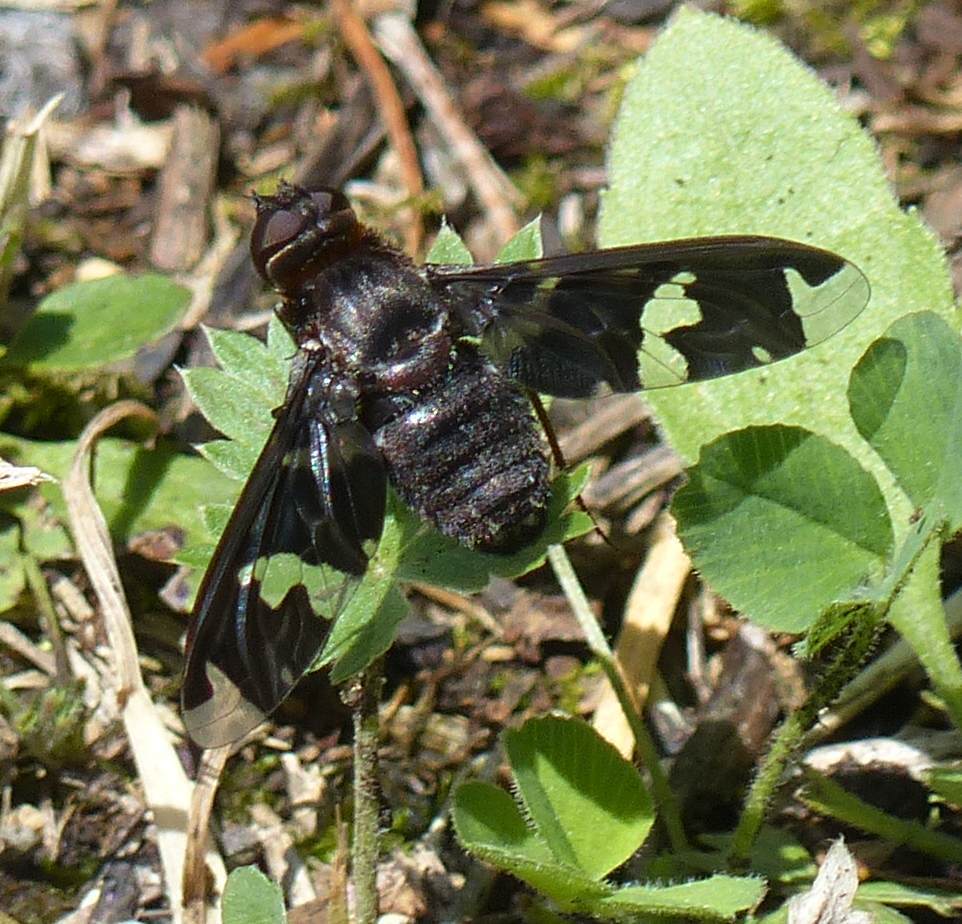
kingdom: Animalia
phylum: Arthropoda
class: Insecta
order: Diptera
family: Bombyliidae
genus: Exoprosopa
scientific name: Exoprosopa decora
